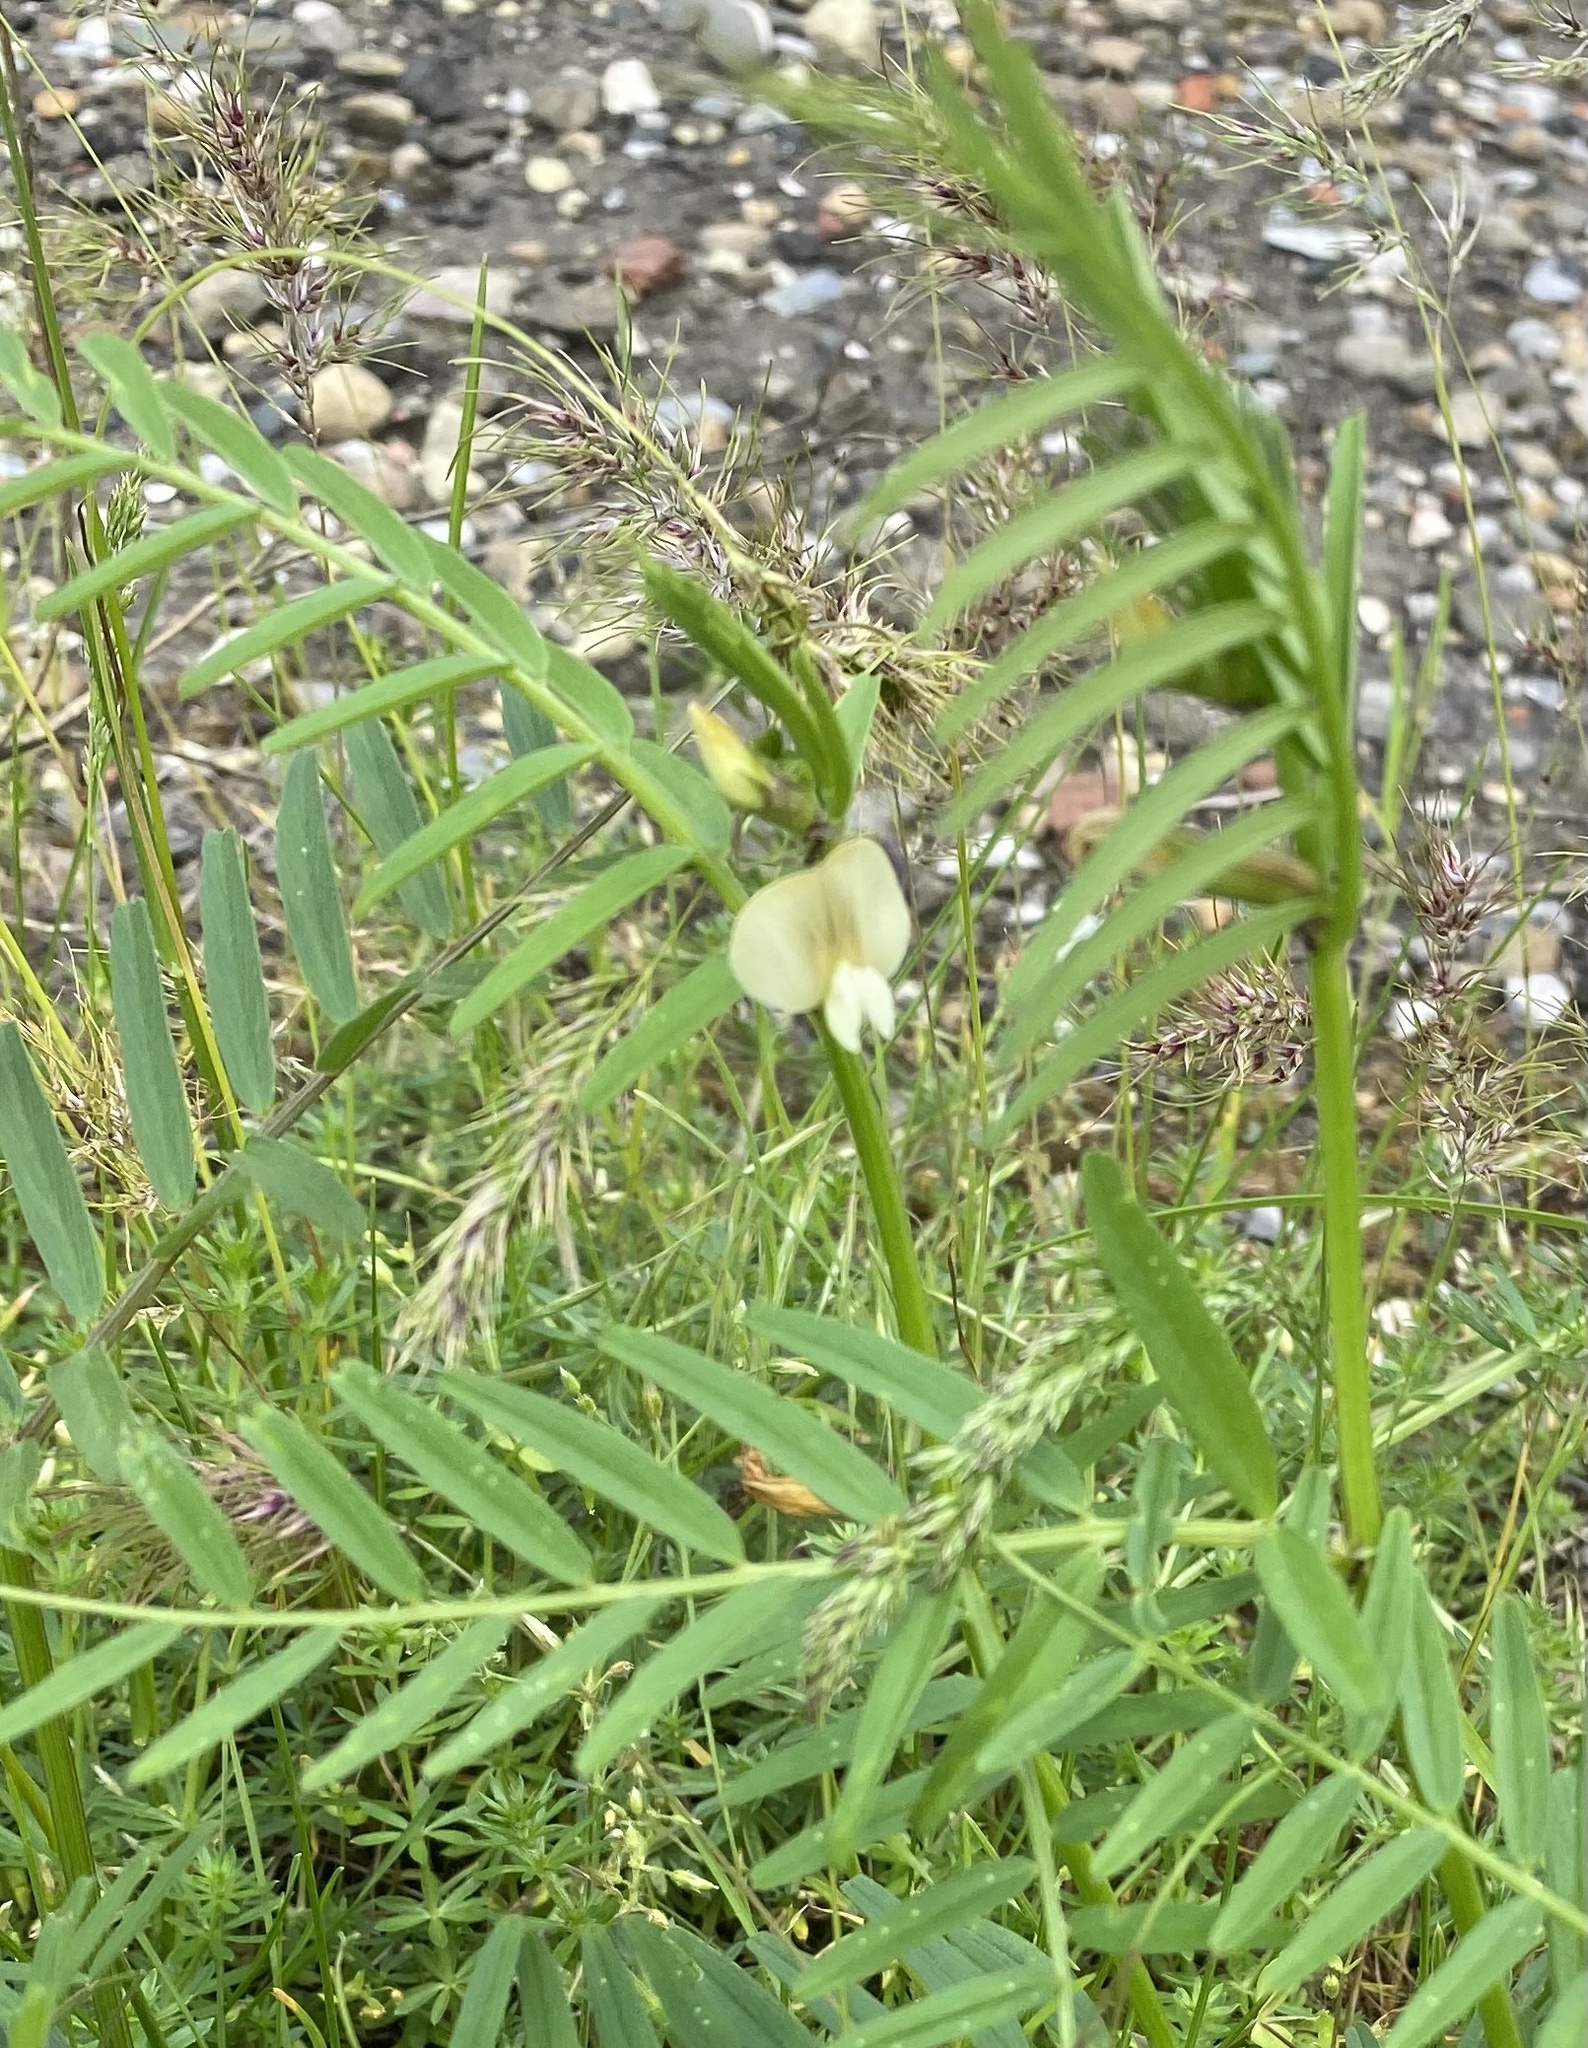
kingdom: Plantae
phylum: Tracheophyta
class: Magnoliopsida
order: Fabales
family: Fabaceae
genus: Vicia
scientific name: Vicia grandiflora
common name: Large yellow vetch
